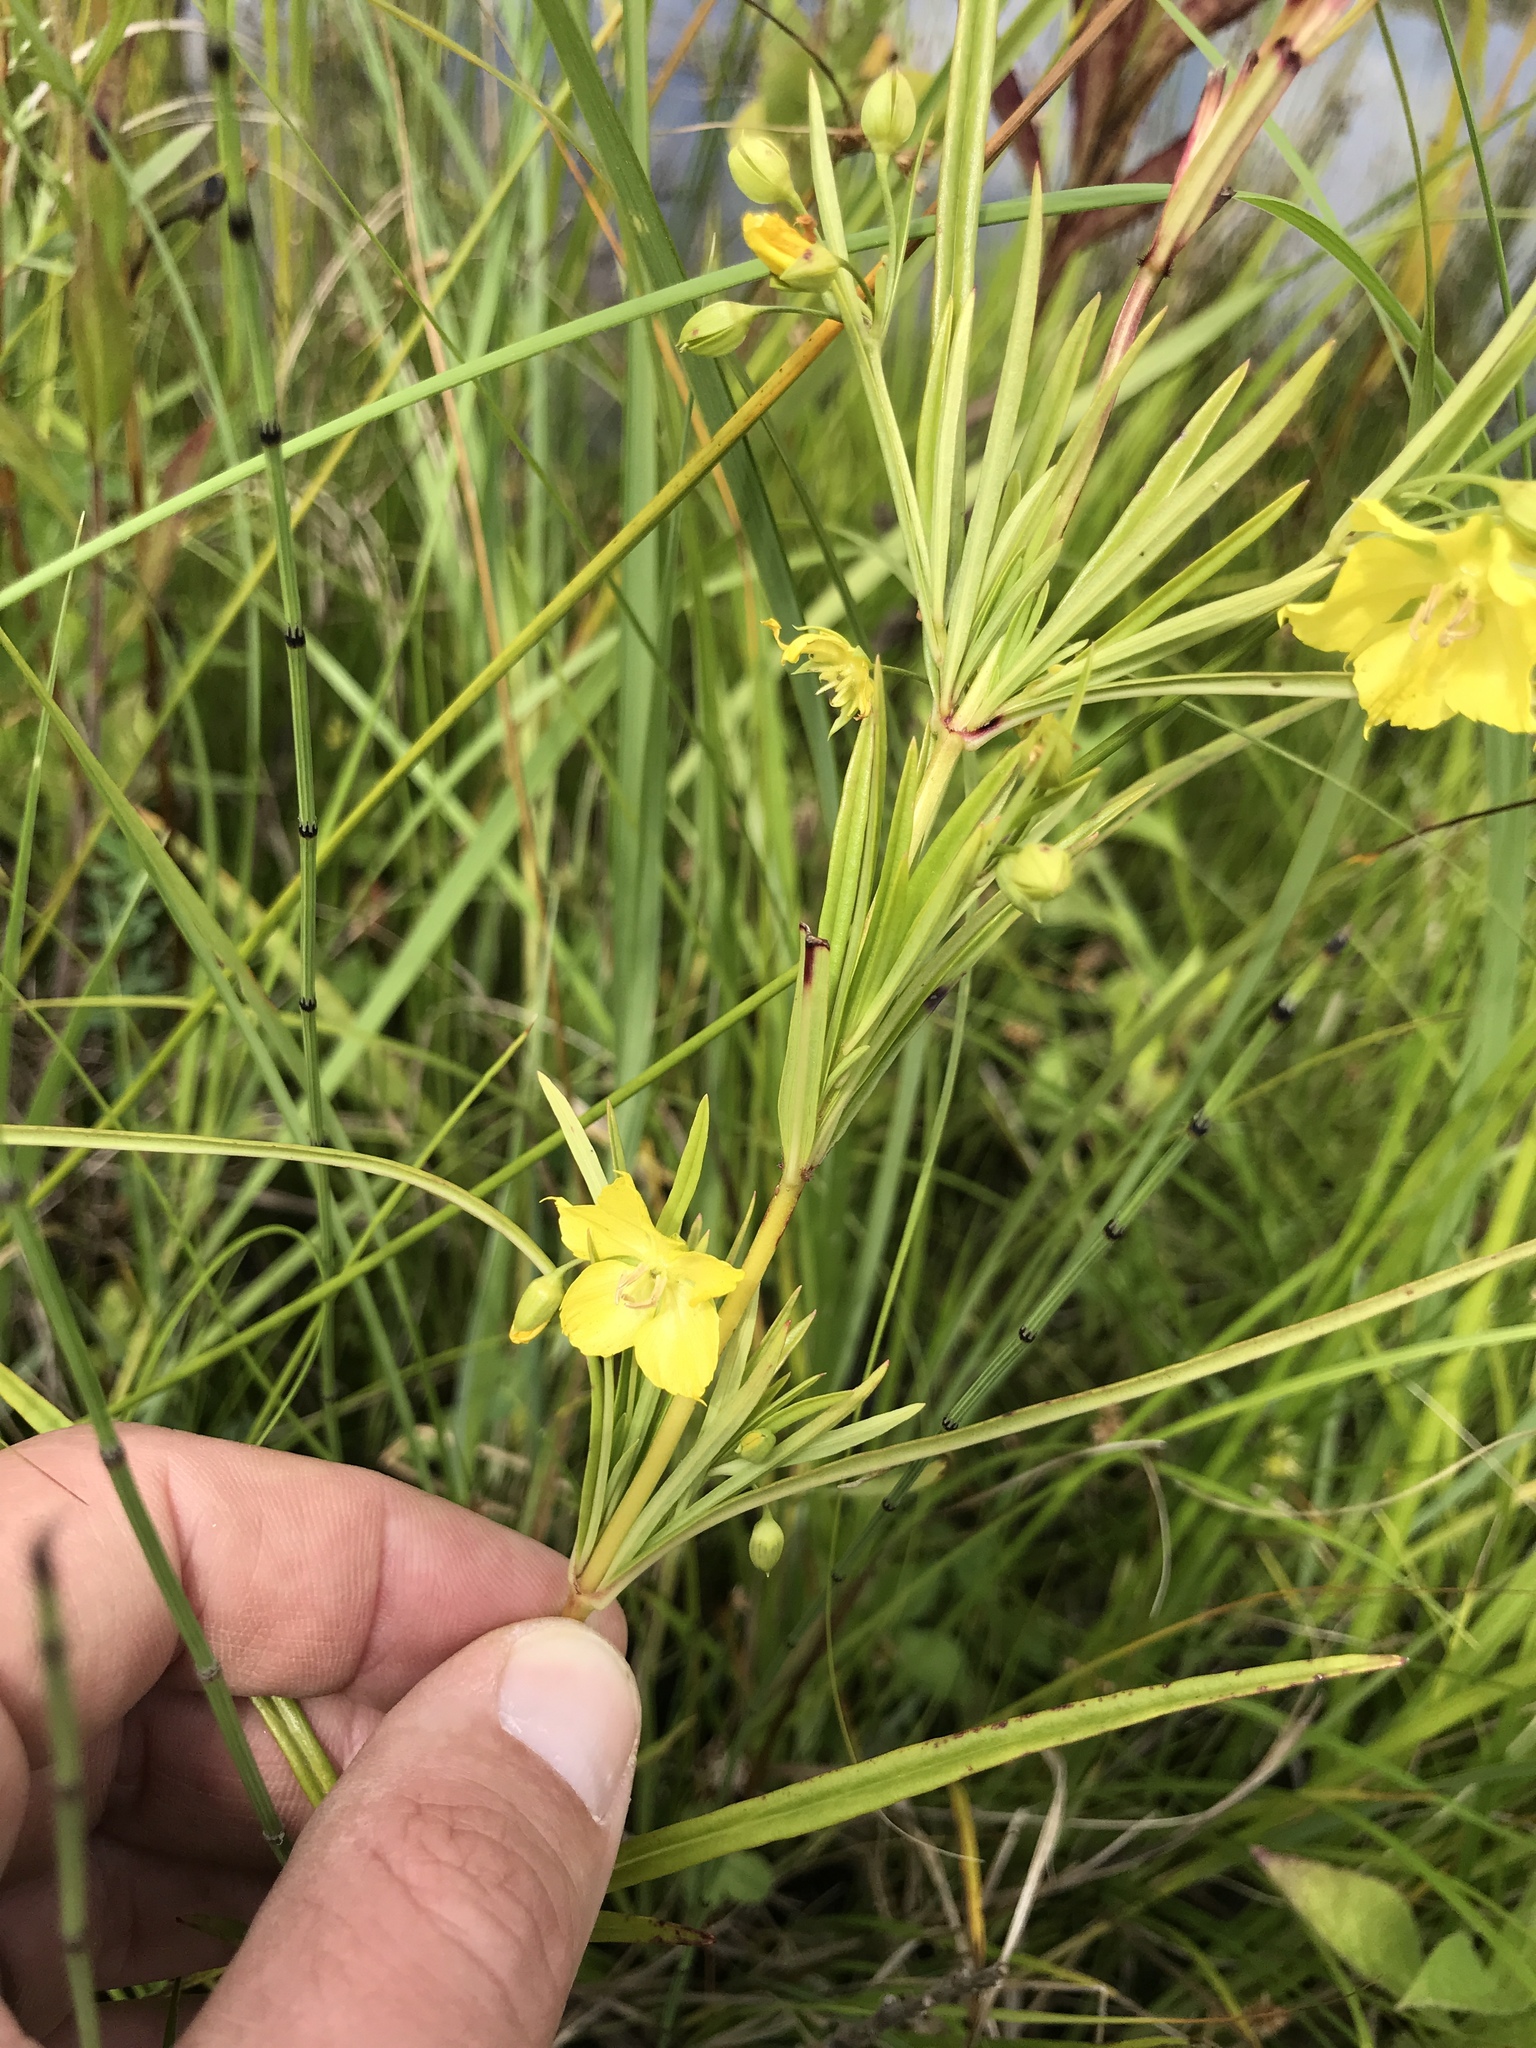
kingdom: Plantae
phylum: Tracheophyta
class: Magnoliopsida
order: Ericales
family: Primulaceae
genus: Lysimachia
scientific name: Lysimachia quadriflora
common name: Four-flowered loosestrife
